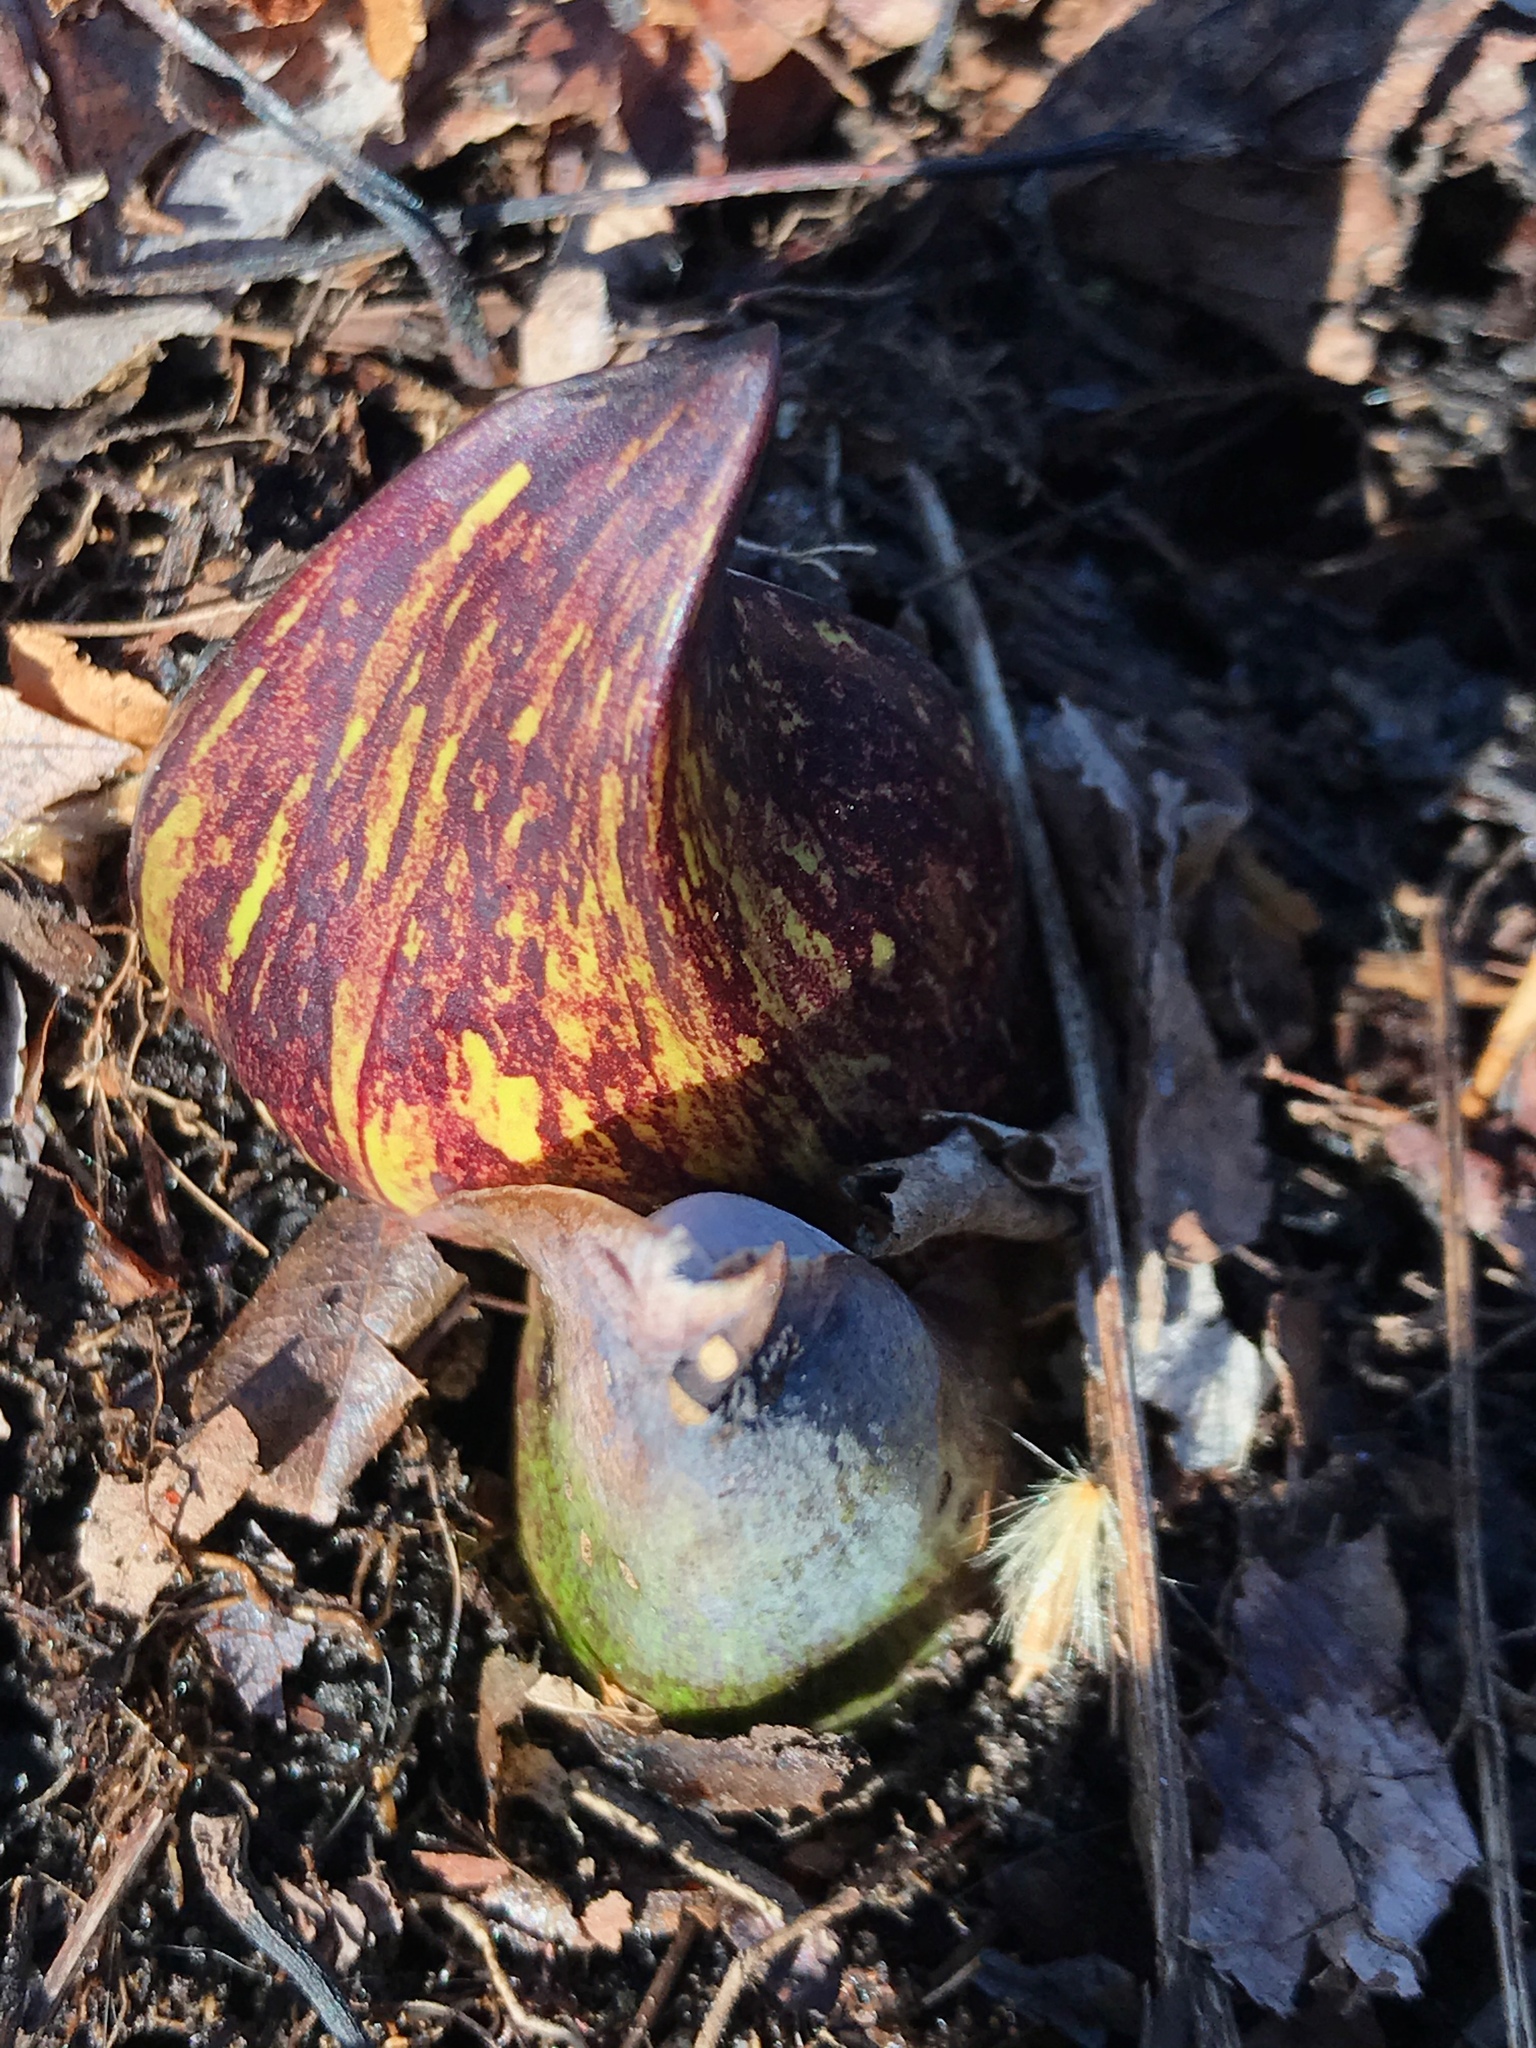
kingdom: Plantae
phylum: Tracheophyta
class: Liliopsida
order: Alismatales
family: Araceae
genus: Symplocarpus
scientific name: Symplocarpus foetidus
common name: Eastern skunk cabbage
